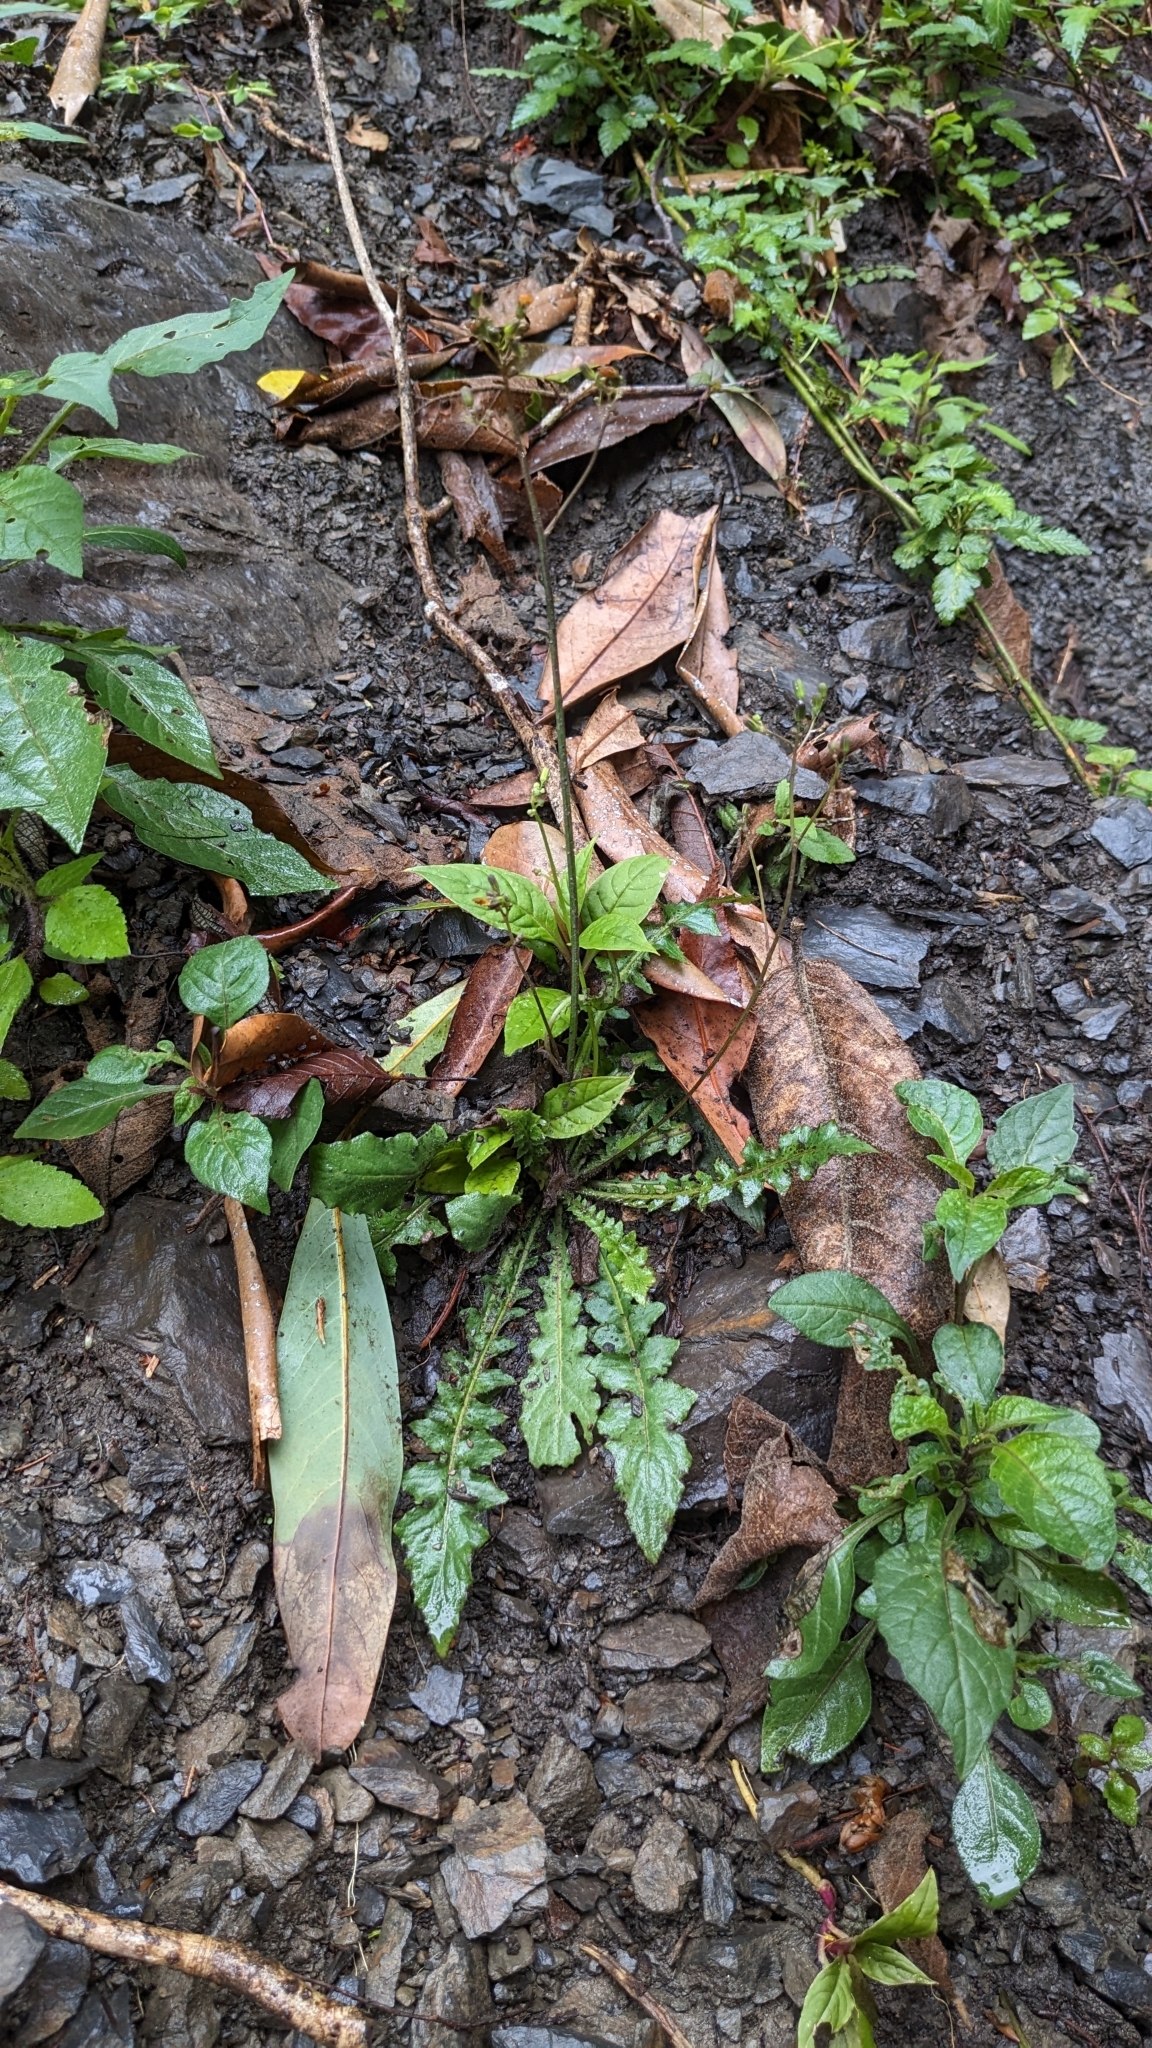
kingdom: Plantae
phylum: Tracheophyta
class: Magnoliopsida
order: Asterales
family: Asteraceae
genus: Youngia
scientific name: Youngia japonica
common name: Oriental false hawksbeard
